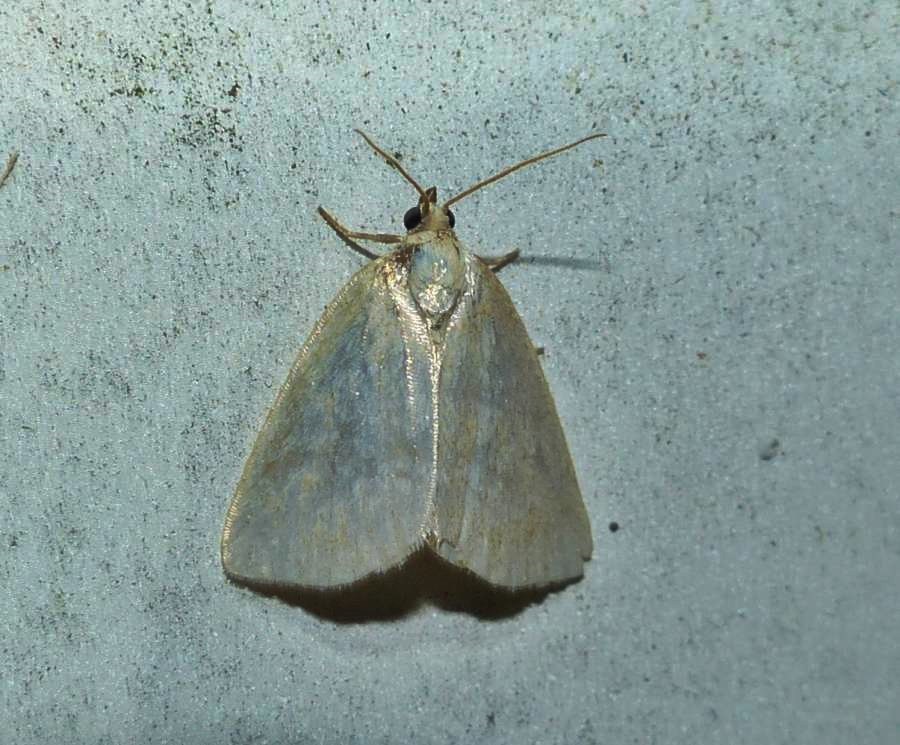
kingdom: Animalia
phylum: Arthropoda
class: Insecta
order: Lepidoptera
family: Noctuidae
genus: Protodeltote
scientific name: Protodeltote albidula
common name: Pale glyph
